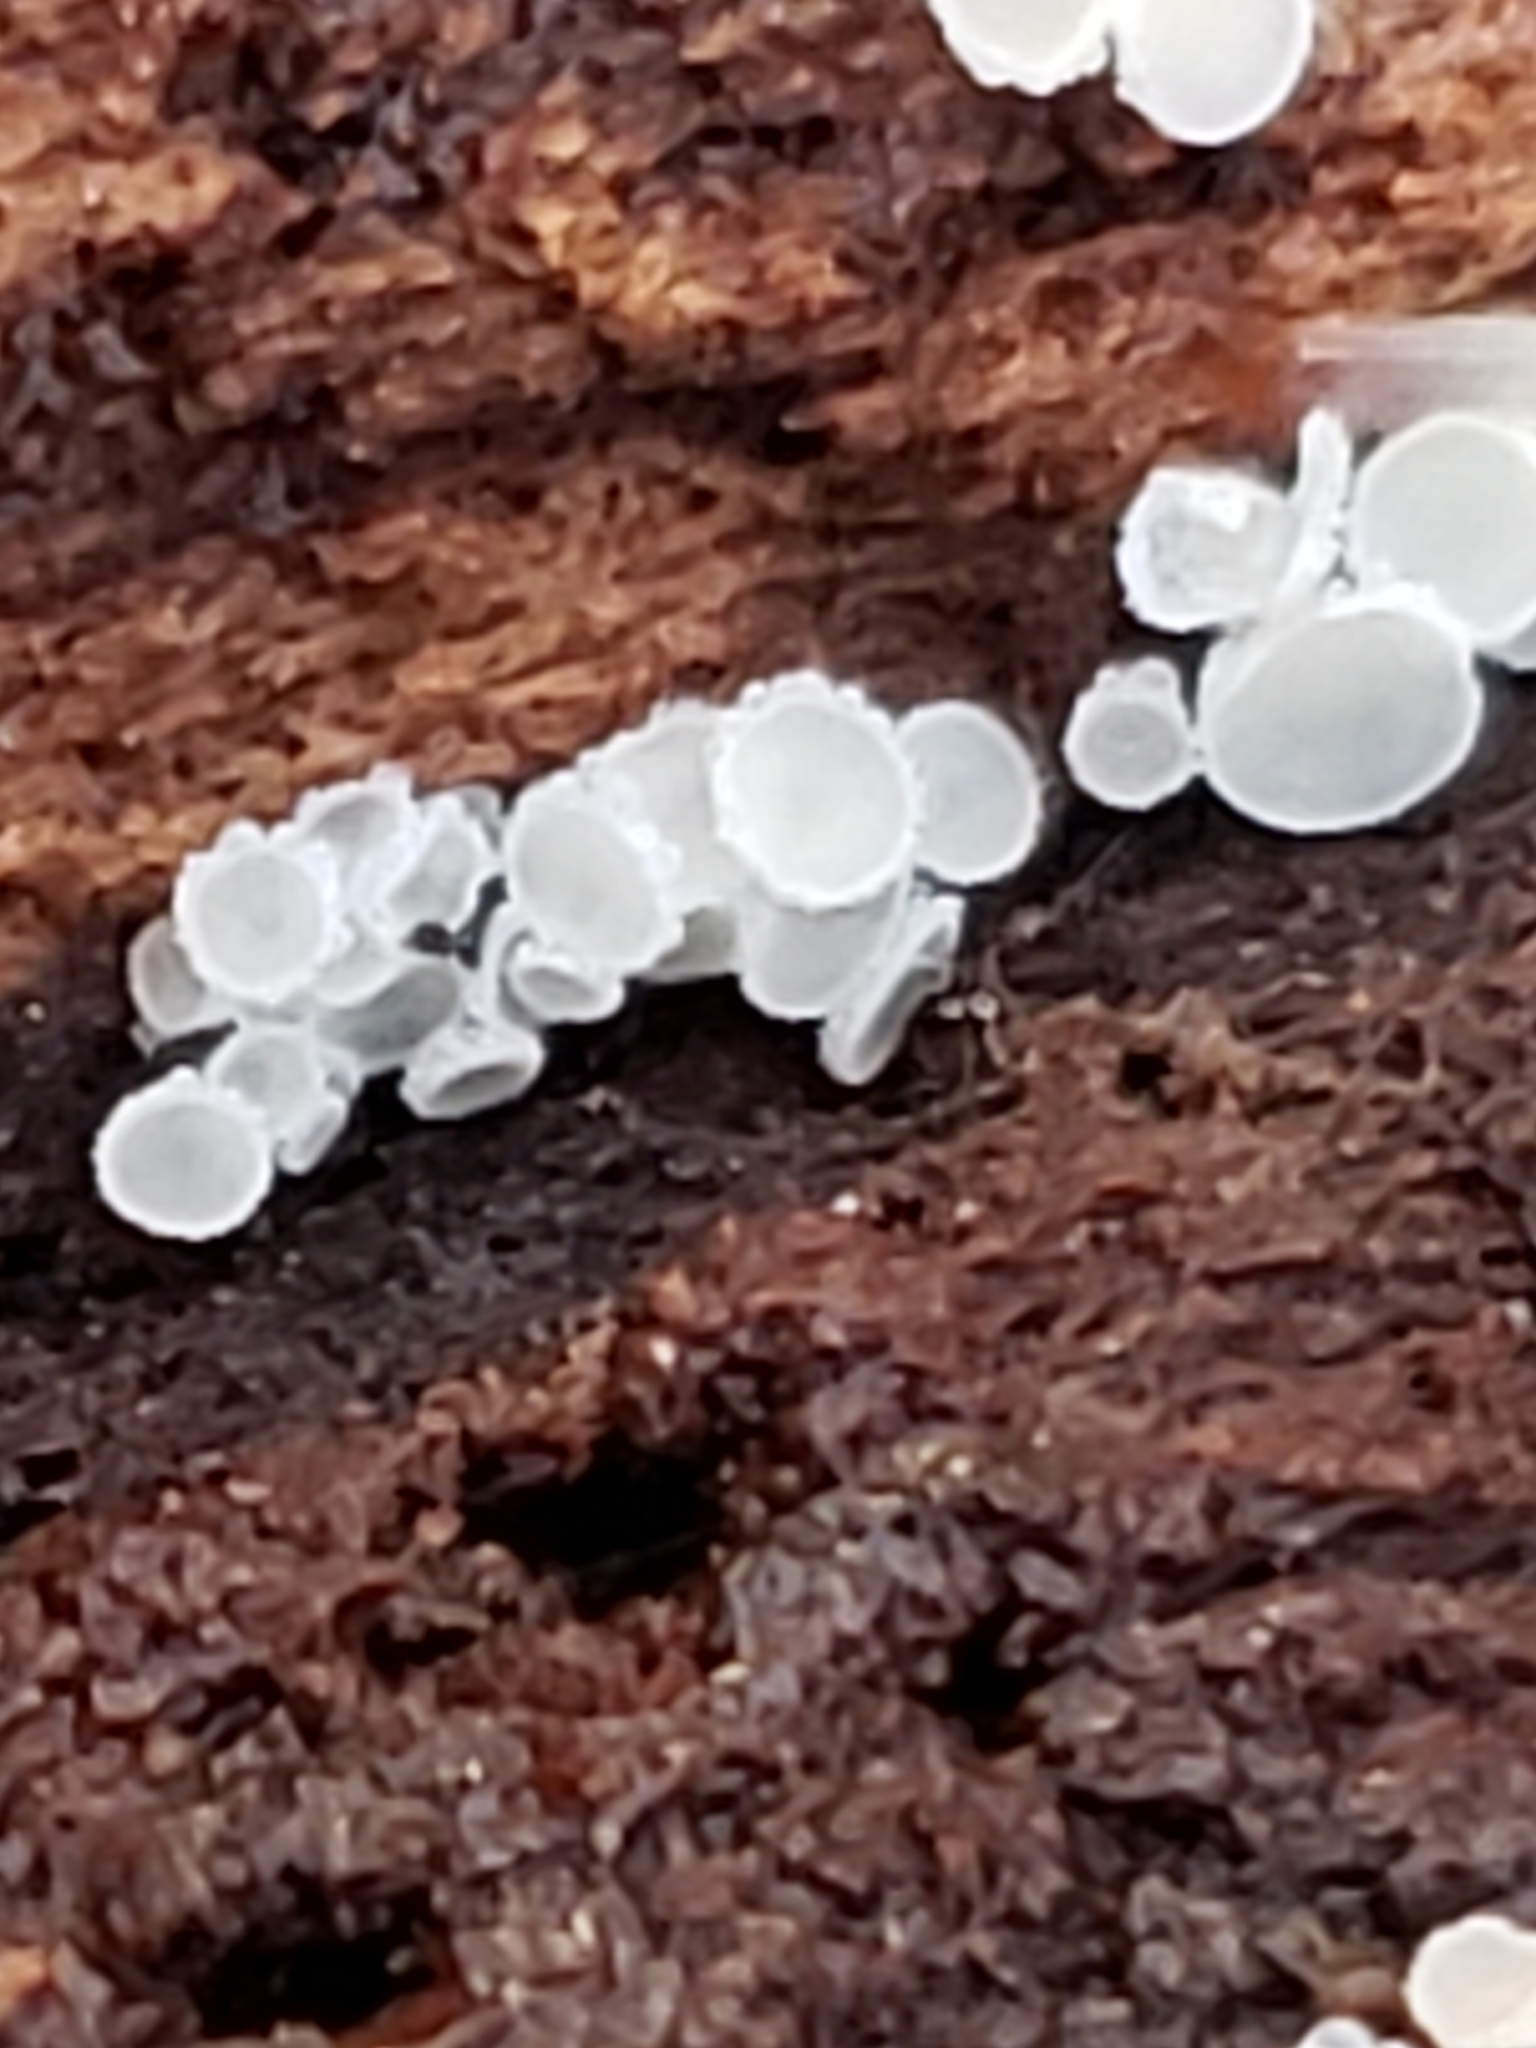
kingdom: Fungi
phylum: Ascomycota
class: Leotiomycetes
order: Helotiales
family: Lachnaceae
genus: Lachnum
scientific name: Lachnum virgineum
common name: Snowy disco
